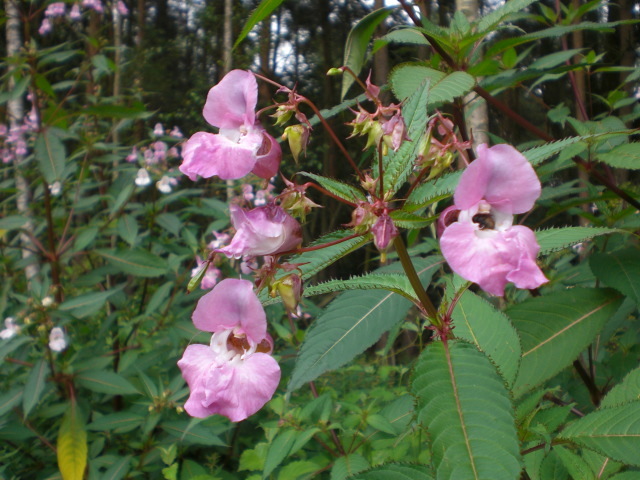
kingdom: Plantae
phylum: Tracheophyta
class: Magnoliopsida
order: Ericales
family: Balsaminaceae
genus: Impatiens
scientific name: Impatiens glandulifera
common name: Himalayan balsam
